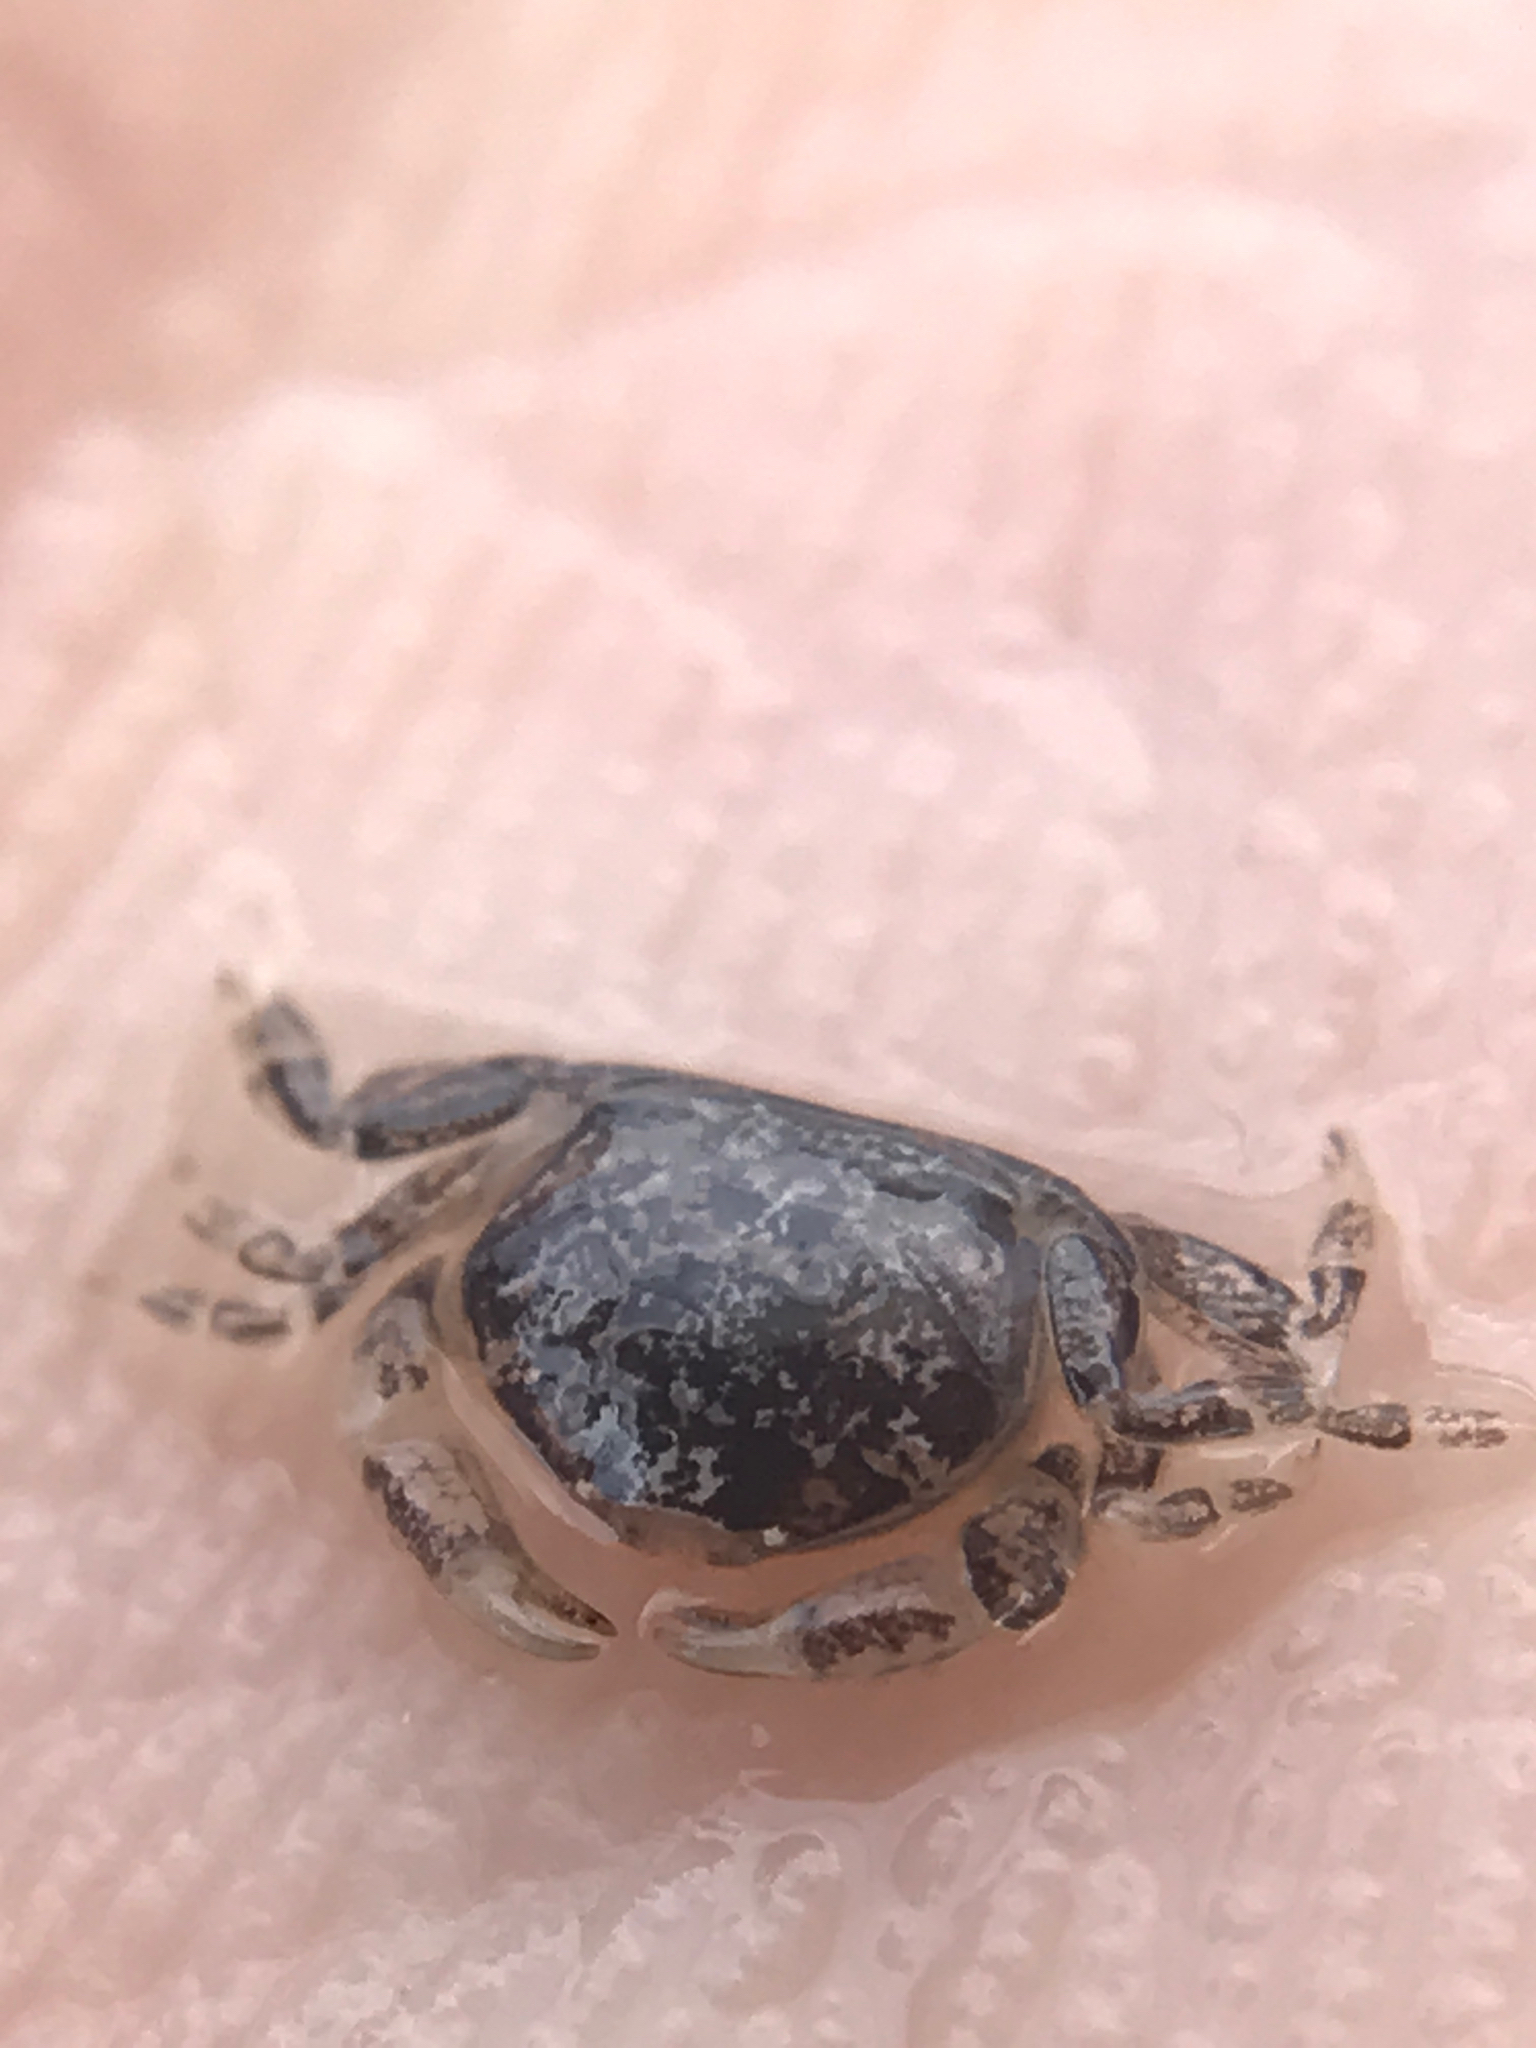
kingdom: Animalia
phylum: Arthropoda
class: Malacostraca
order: Decapoda
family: Pinnotheridae
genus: Dissodactylus
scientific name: Dissodactylus mellitae
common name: Sand-dollar pea crab
